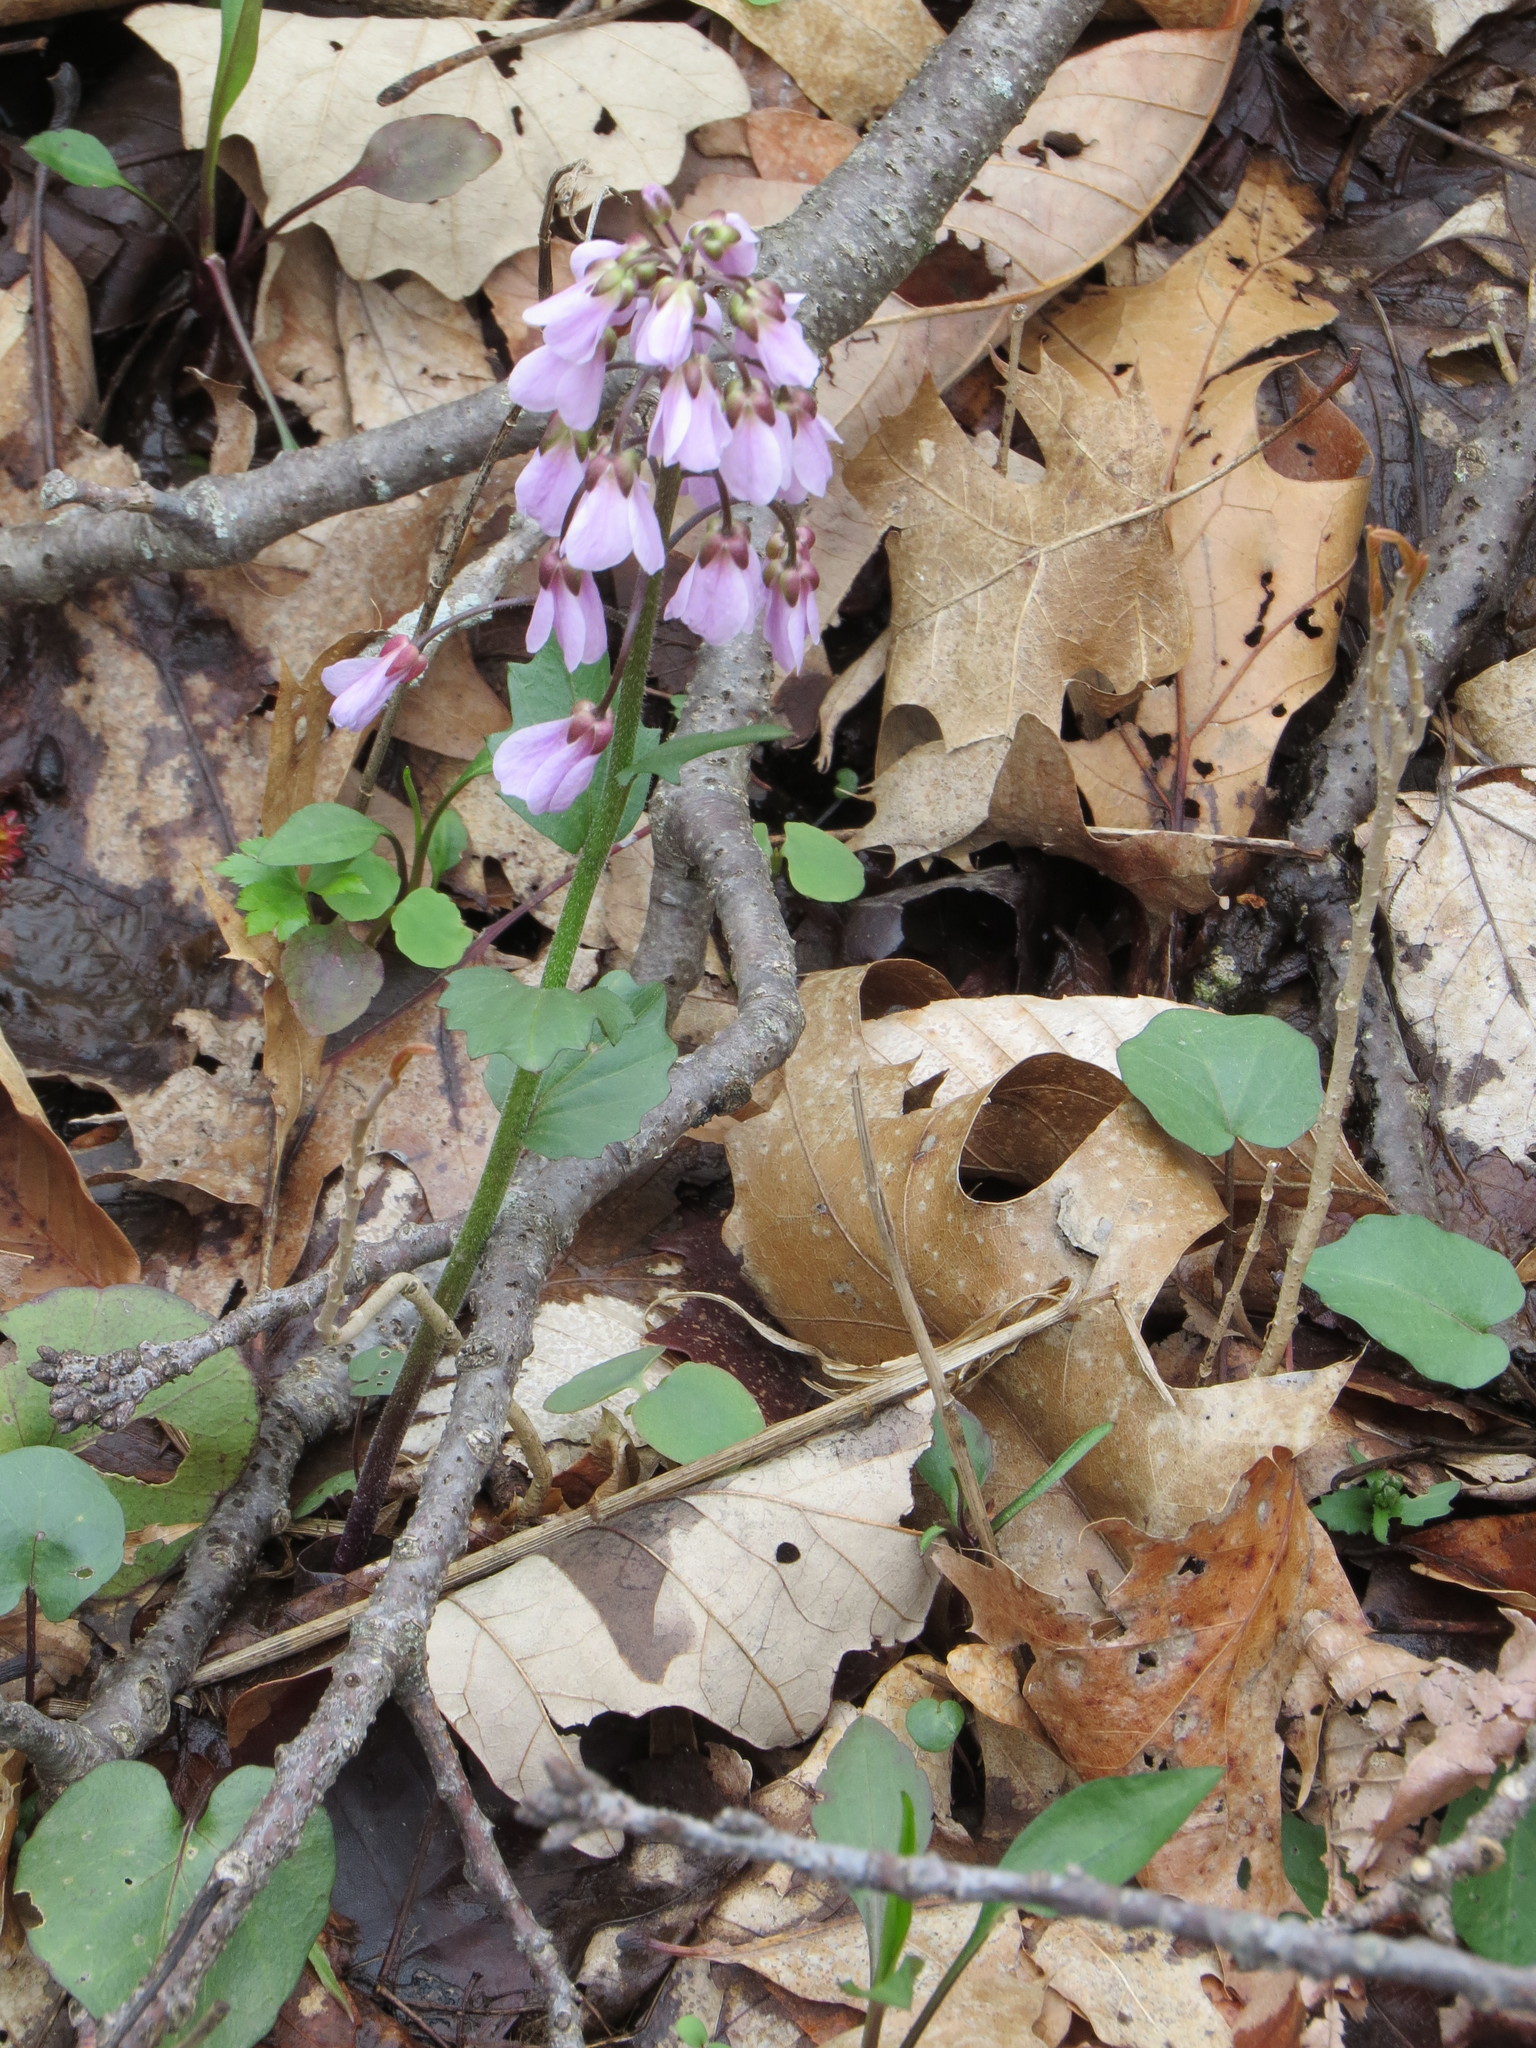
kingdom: Plantae
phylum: Tracheophyta
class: Magnoliopsida
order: Brassicales
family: Brassicaceae
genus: Cardamine
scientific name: Cardamine douglassii
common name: Purple cress
